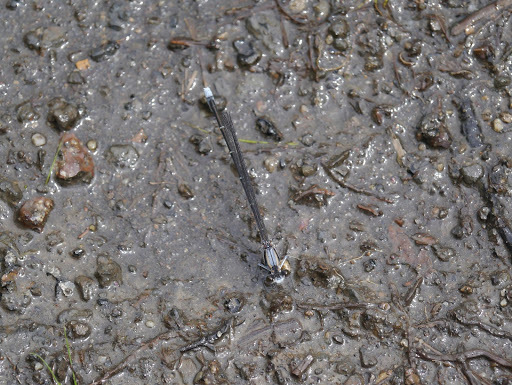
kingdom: Animalia
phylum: Arthropoda
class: Insecta
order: Odonata
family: Coenagrionidae
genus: Argia
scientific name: Argia moesta
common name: Powdered dancer
